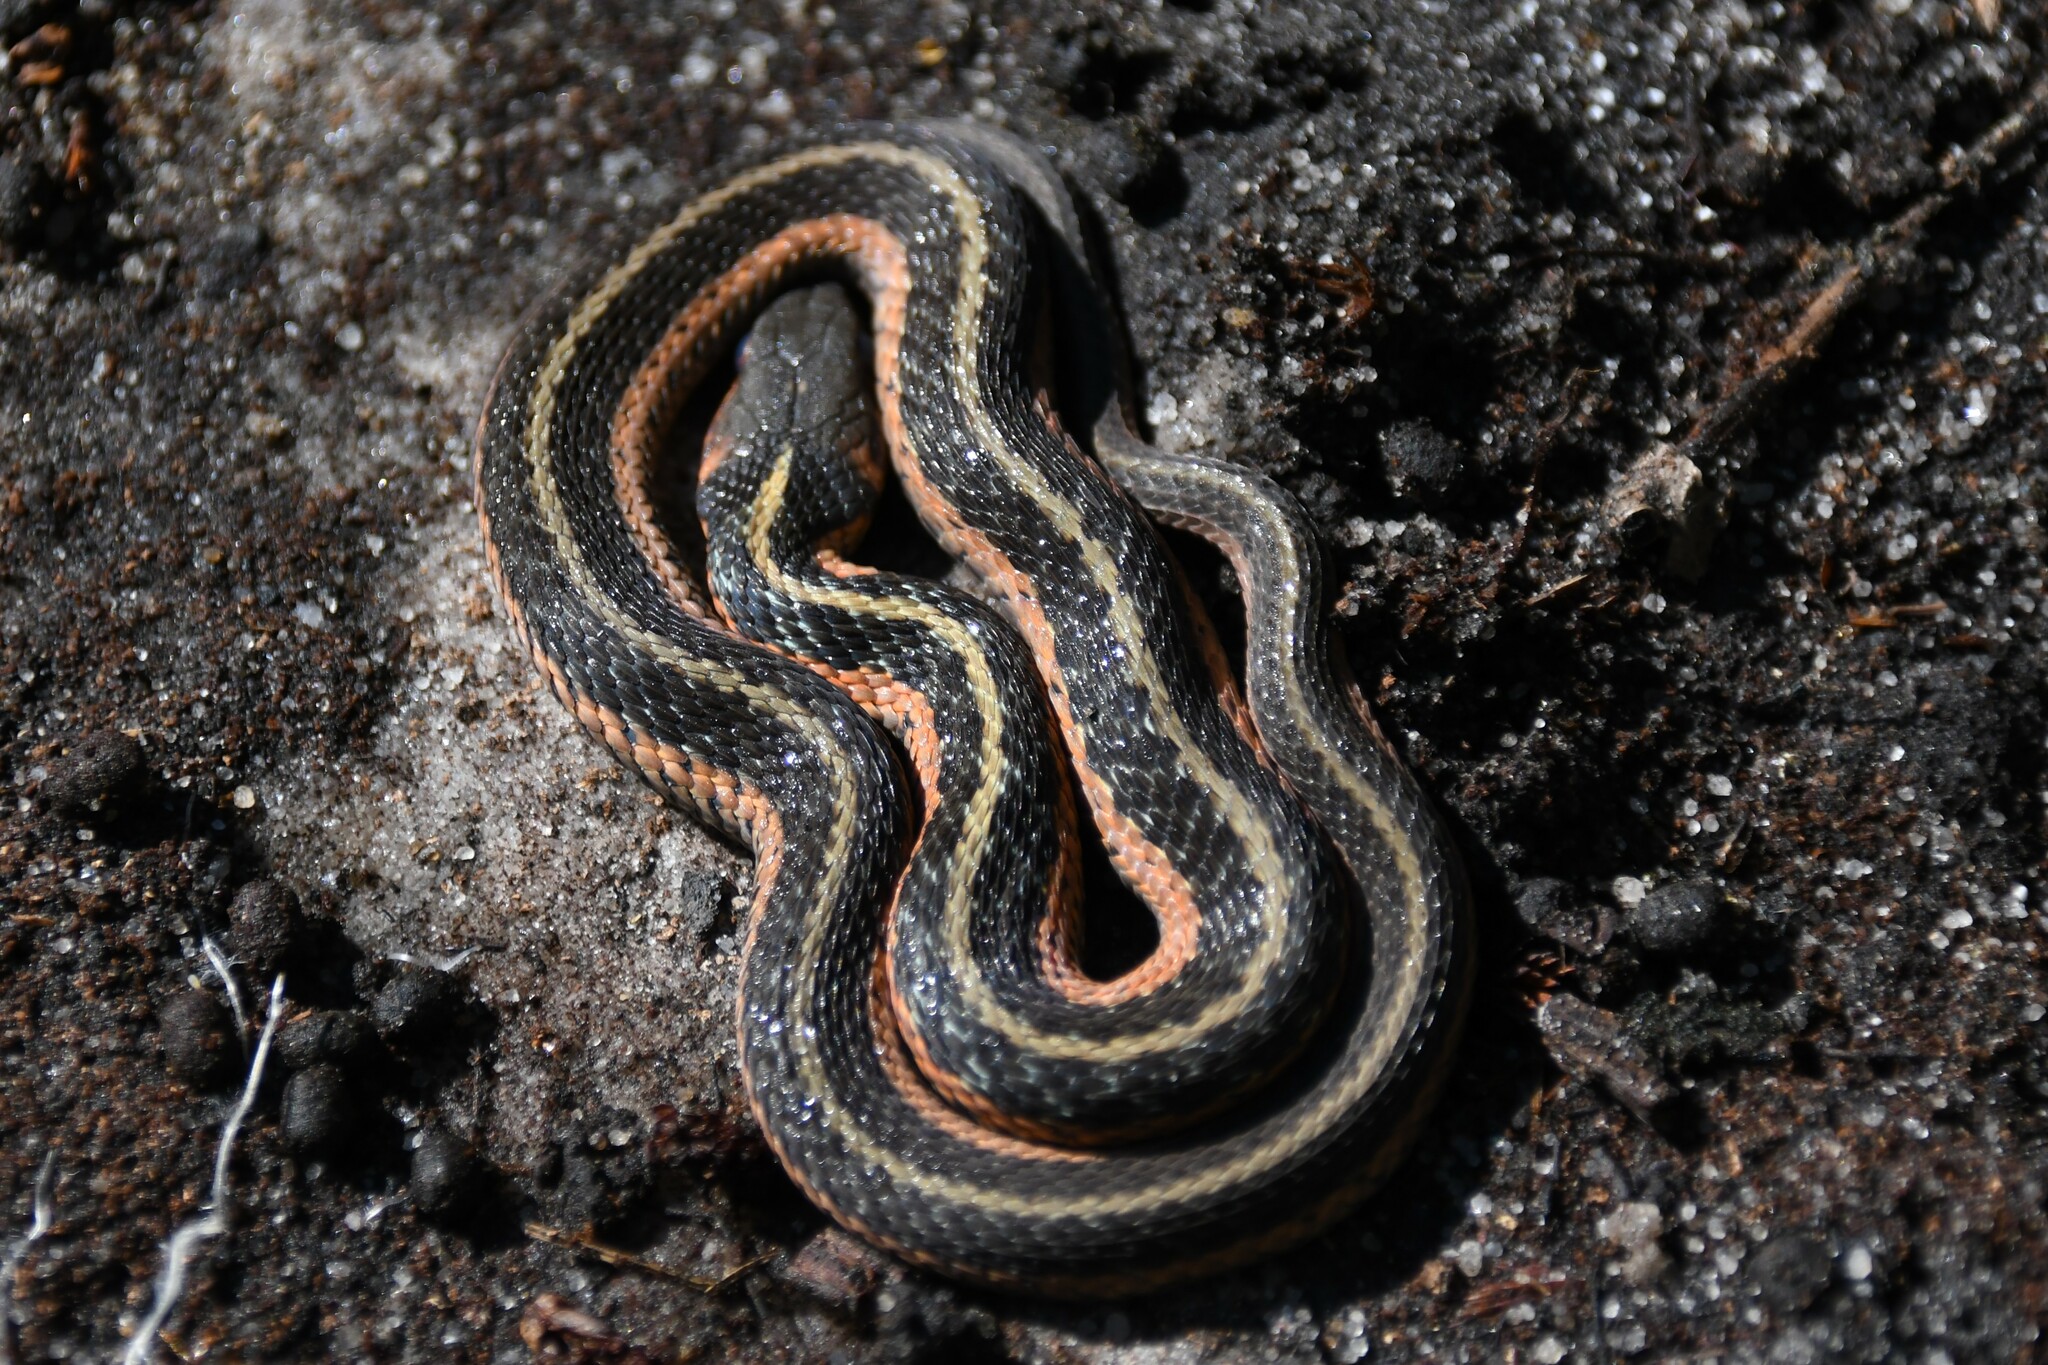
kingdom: Animalia
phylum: Chordata
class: Squamata
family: Colubridae
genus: Thamnophis
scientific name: Thamnophis sirtalis
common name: Common garter snake
